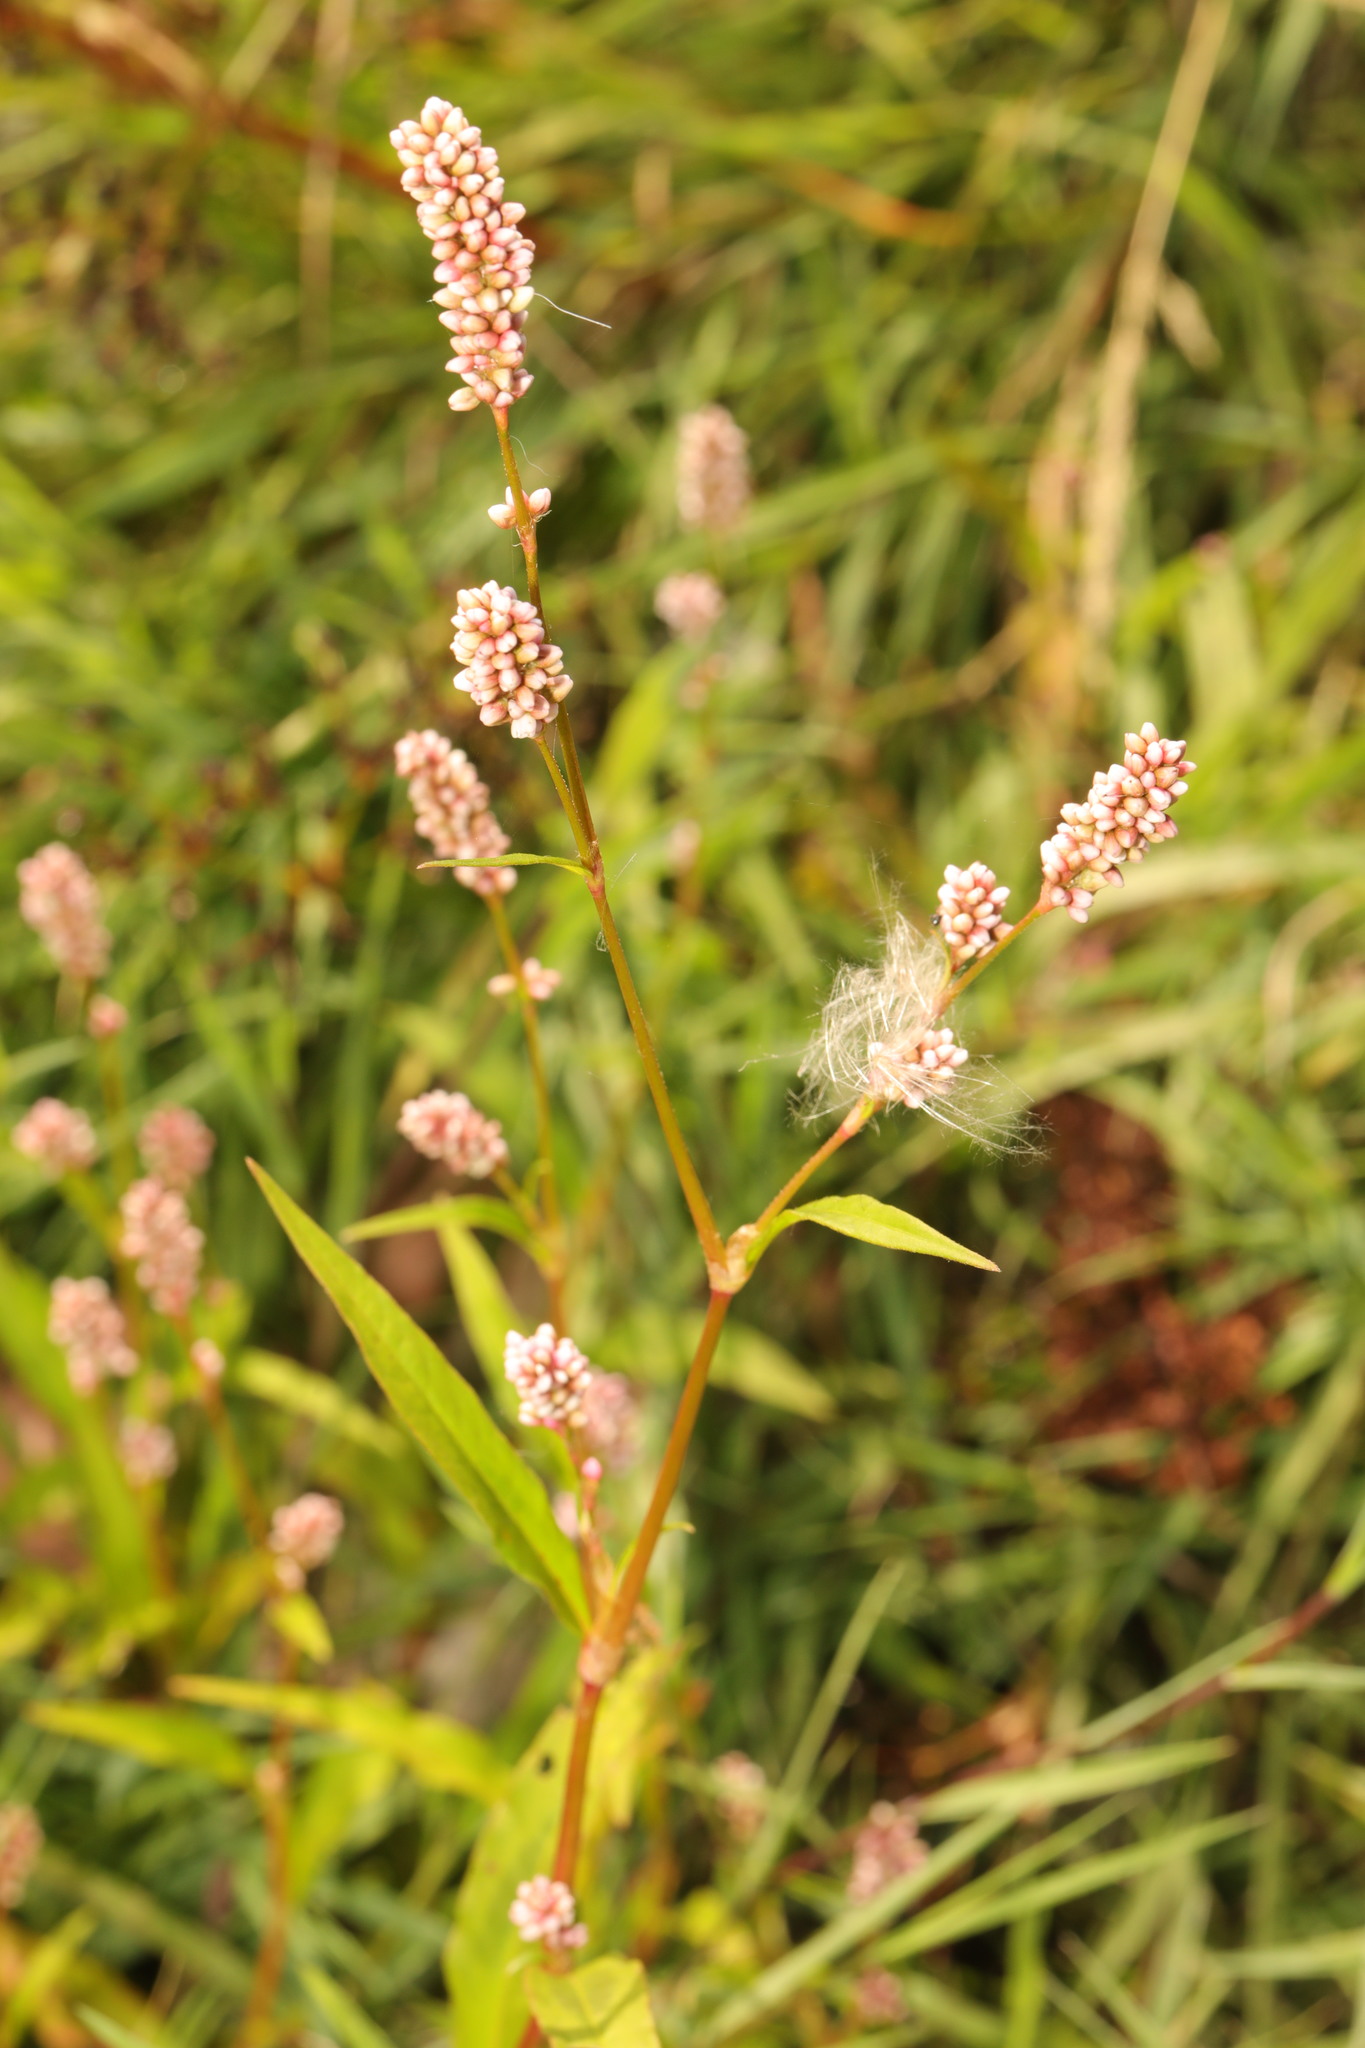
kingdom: Plantae
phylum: Tracheophyta
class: Magnoliopsida
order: Caryophyllales
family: Polygonaceae
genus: Persicaria
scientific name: Persicaria maculosa
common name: Redshank
